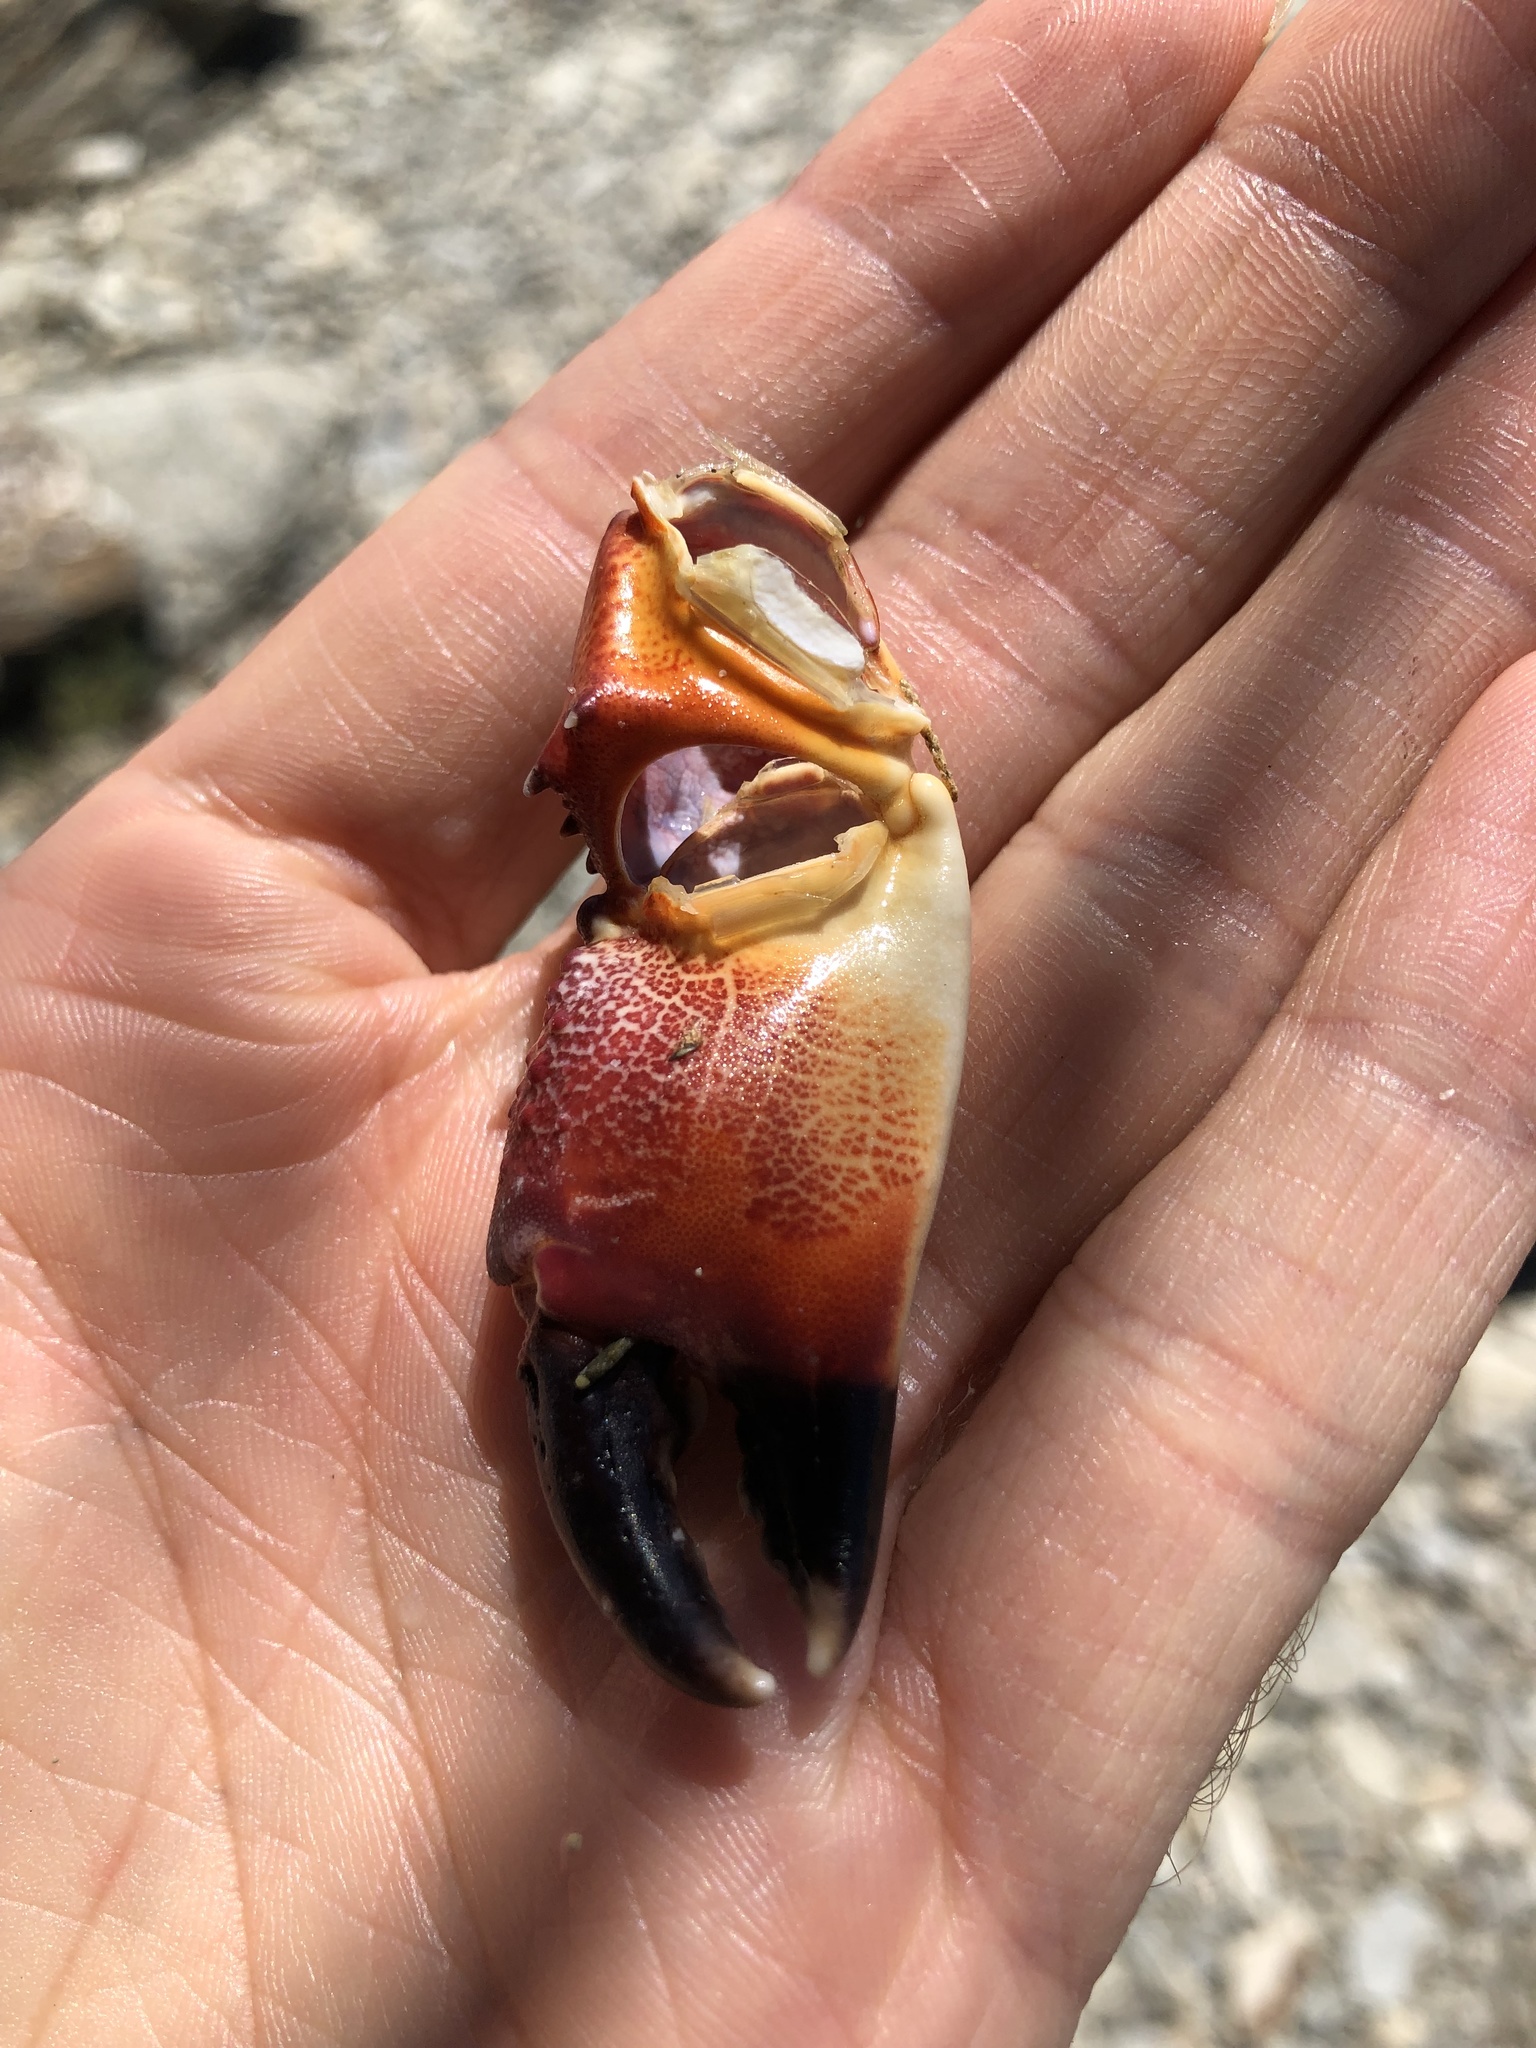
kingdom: Animalia
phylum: Arthropoda
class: Malacostraca
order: Decapoda
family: Eriphiidae
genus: Eriphia
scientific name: Eriphia verrucosa
